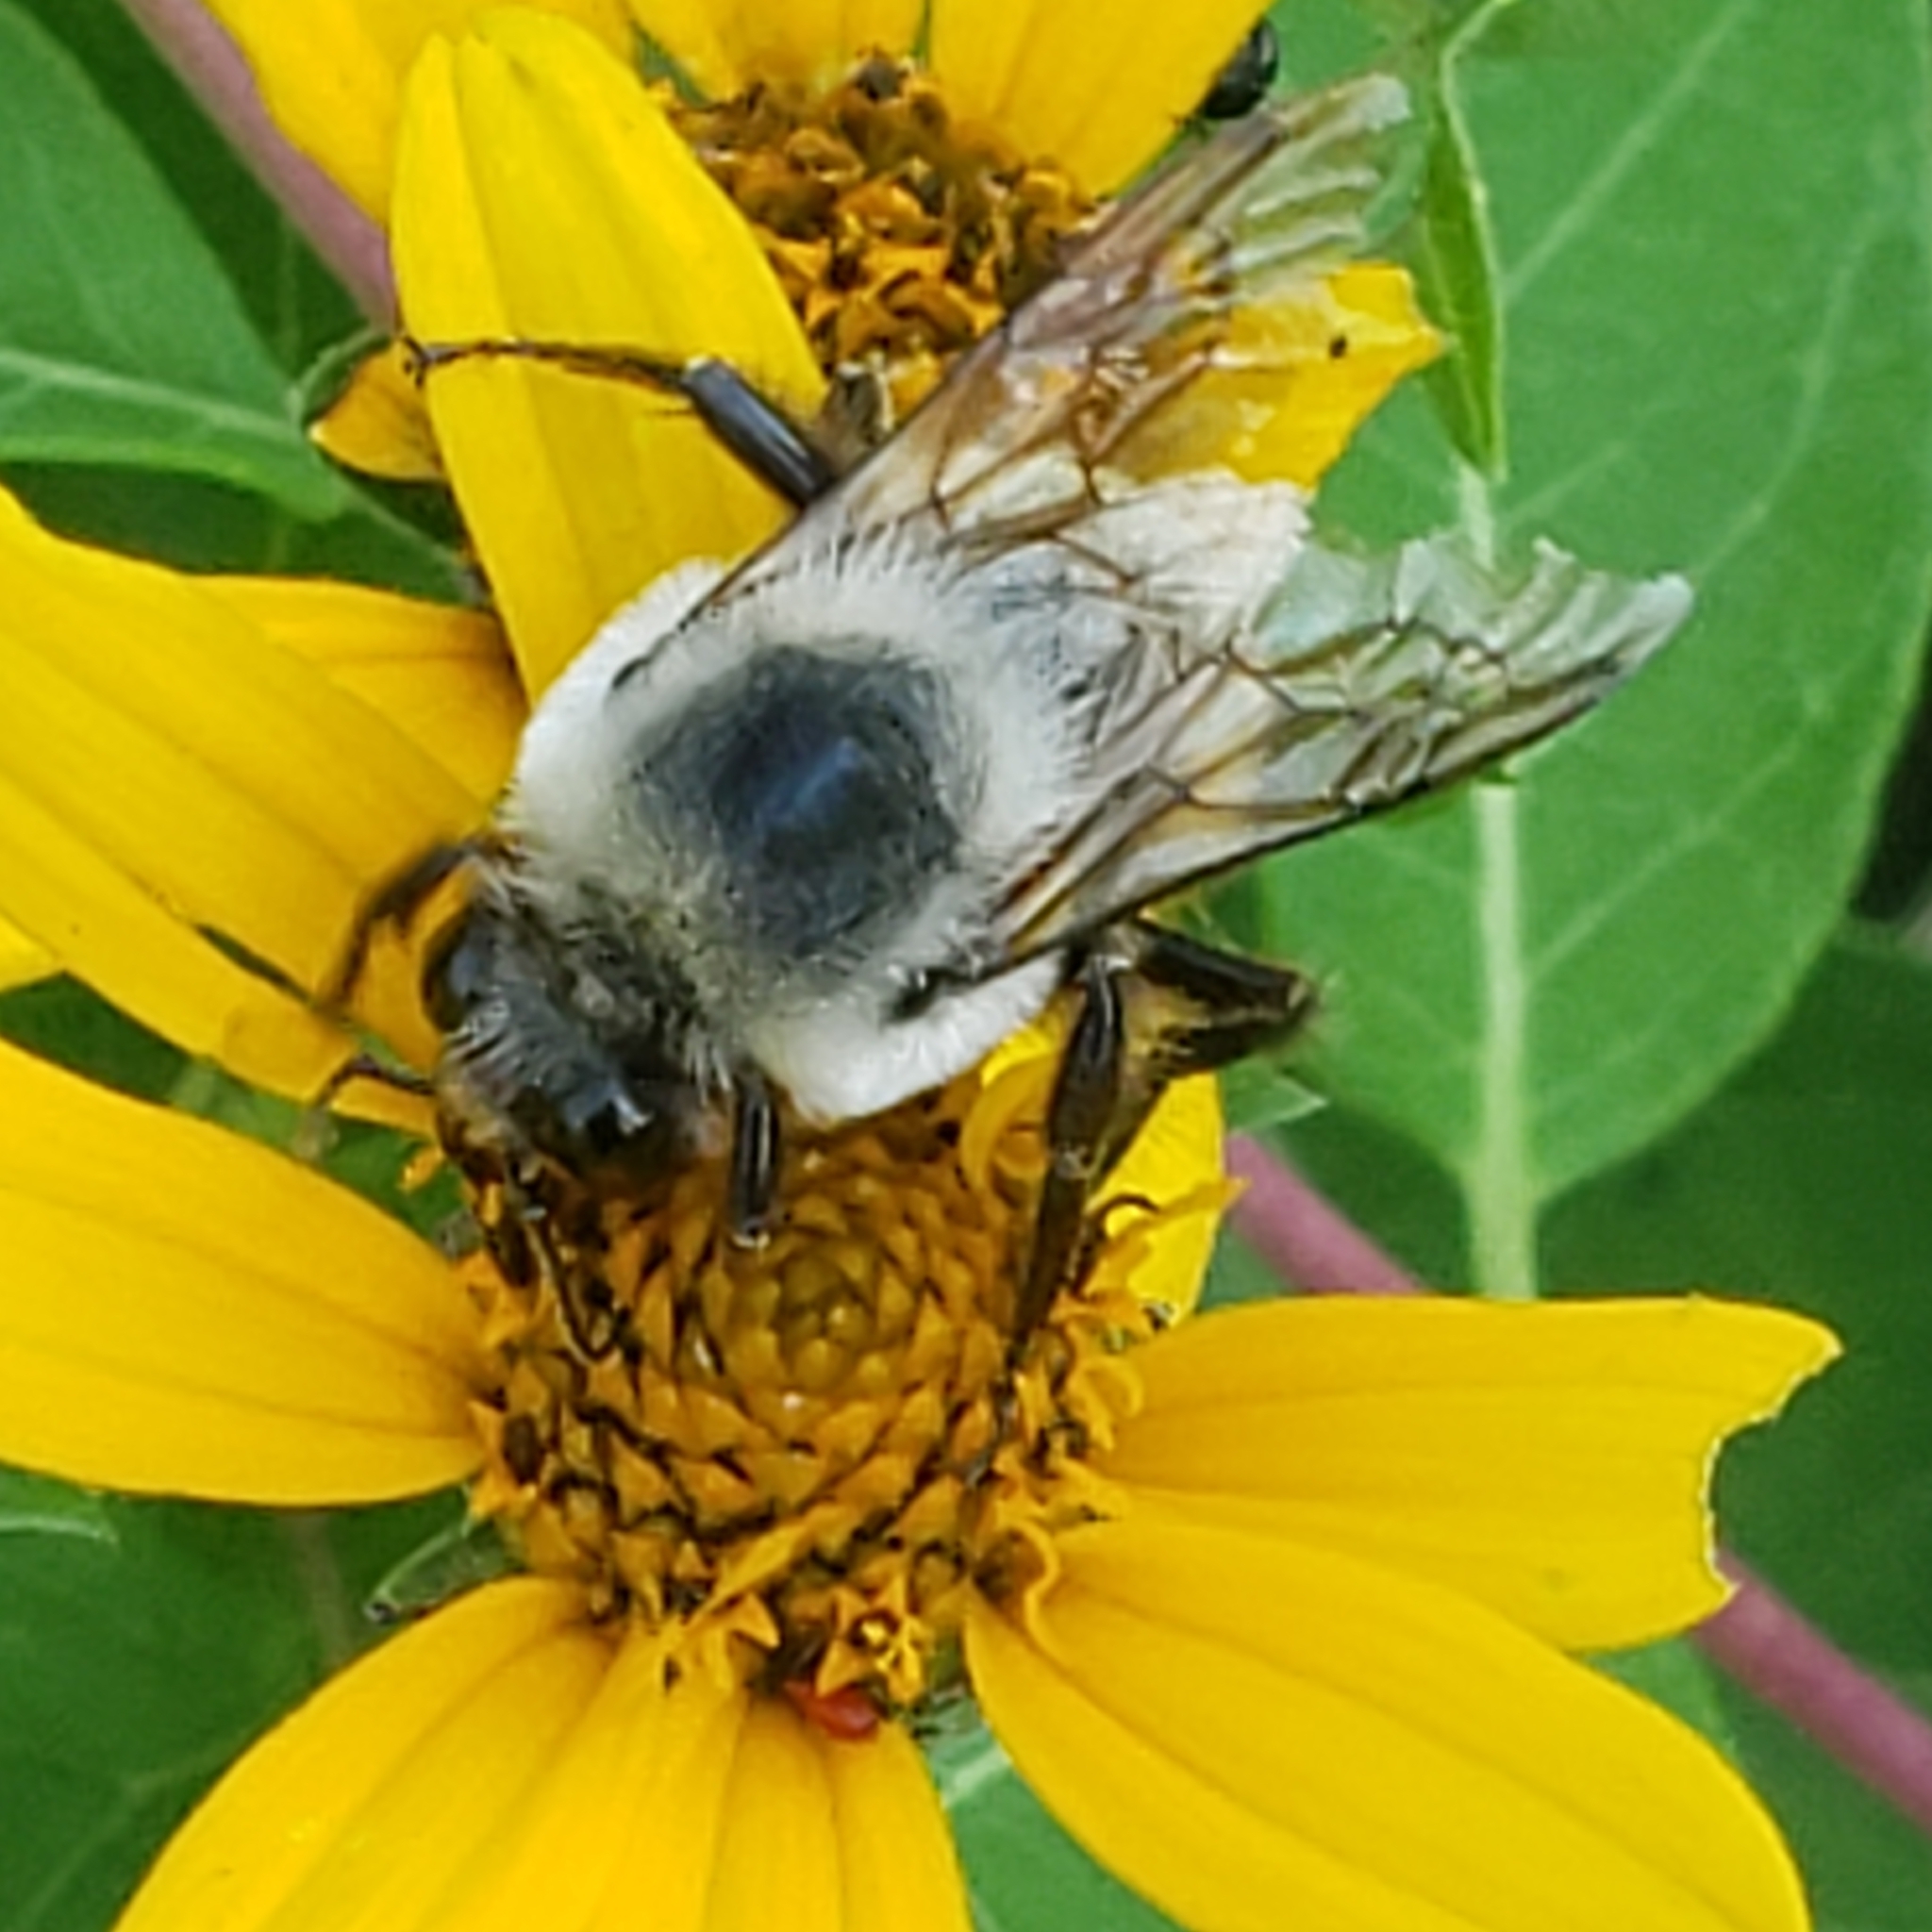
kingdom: Animalia
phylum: Arthropoda
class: Insecta
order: Hymenoptera
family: Apidae
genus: Bombus
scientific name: Bombus griseocollis
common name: Brown-belted bumble bee
